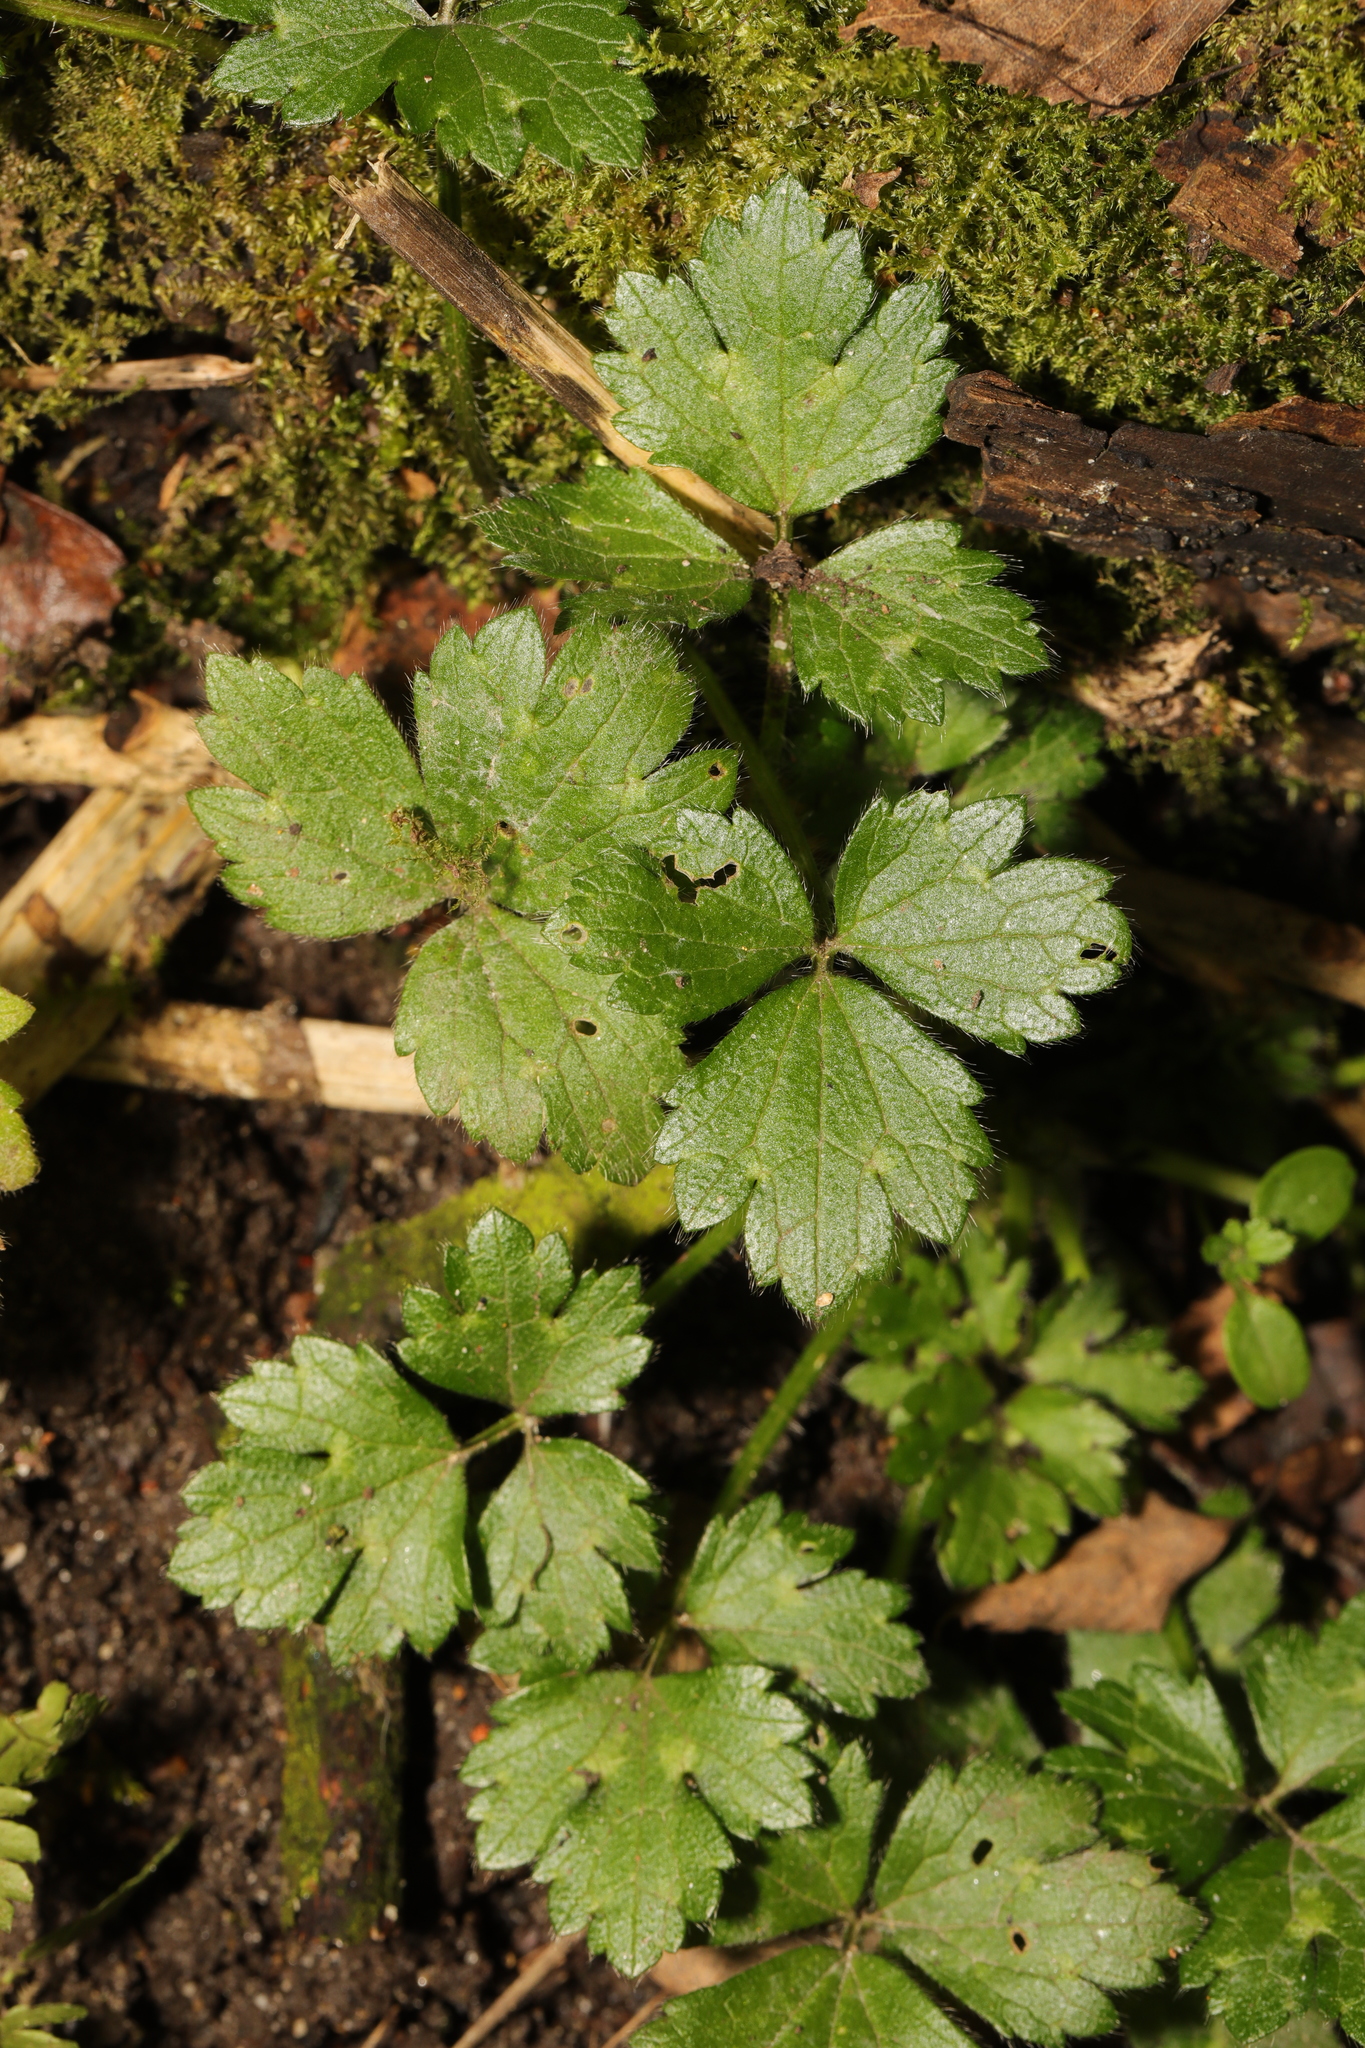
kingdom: Plantae
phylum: Tracheophyta
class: Magnoliopsida
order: Ranunculales
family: Ranunculaceae
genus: Ranunculus
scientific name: Ranunculus repens
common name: Creeping buttercup
